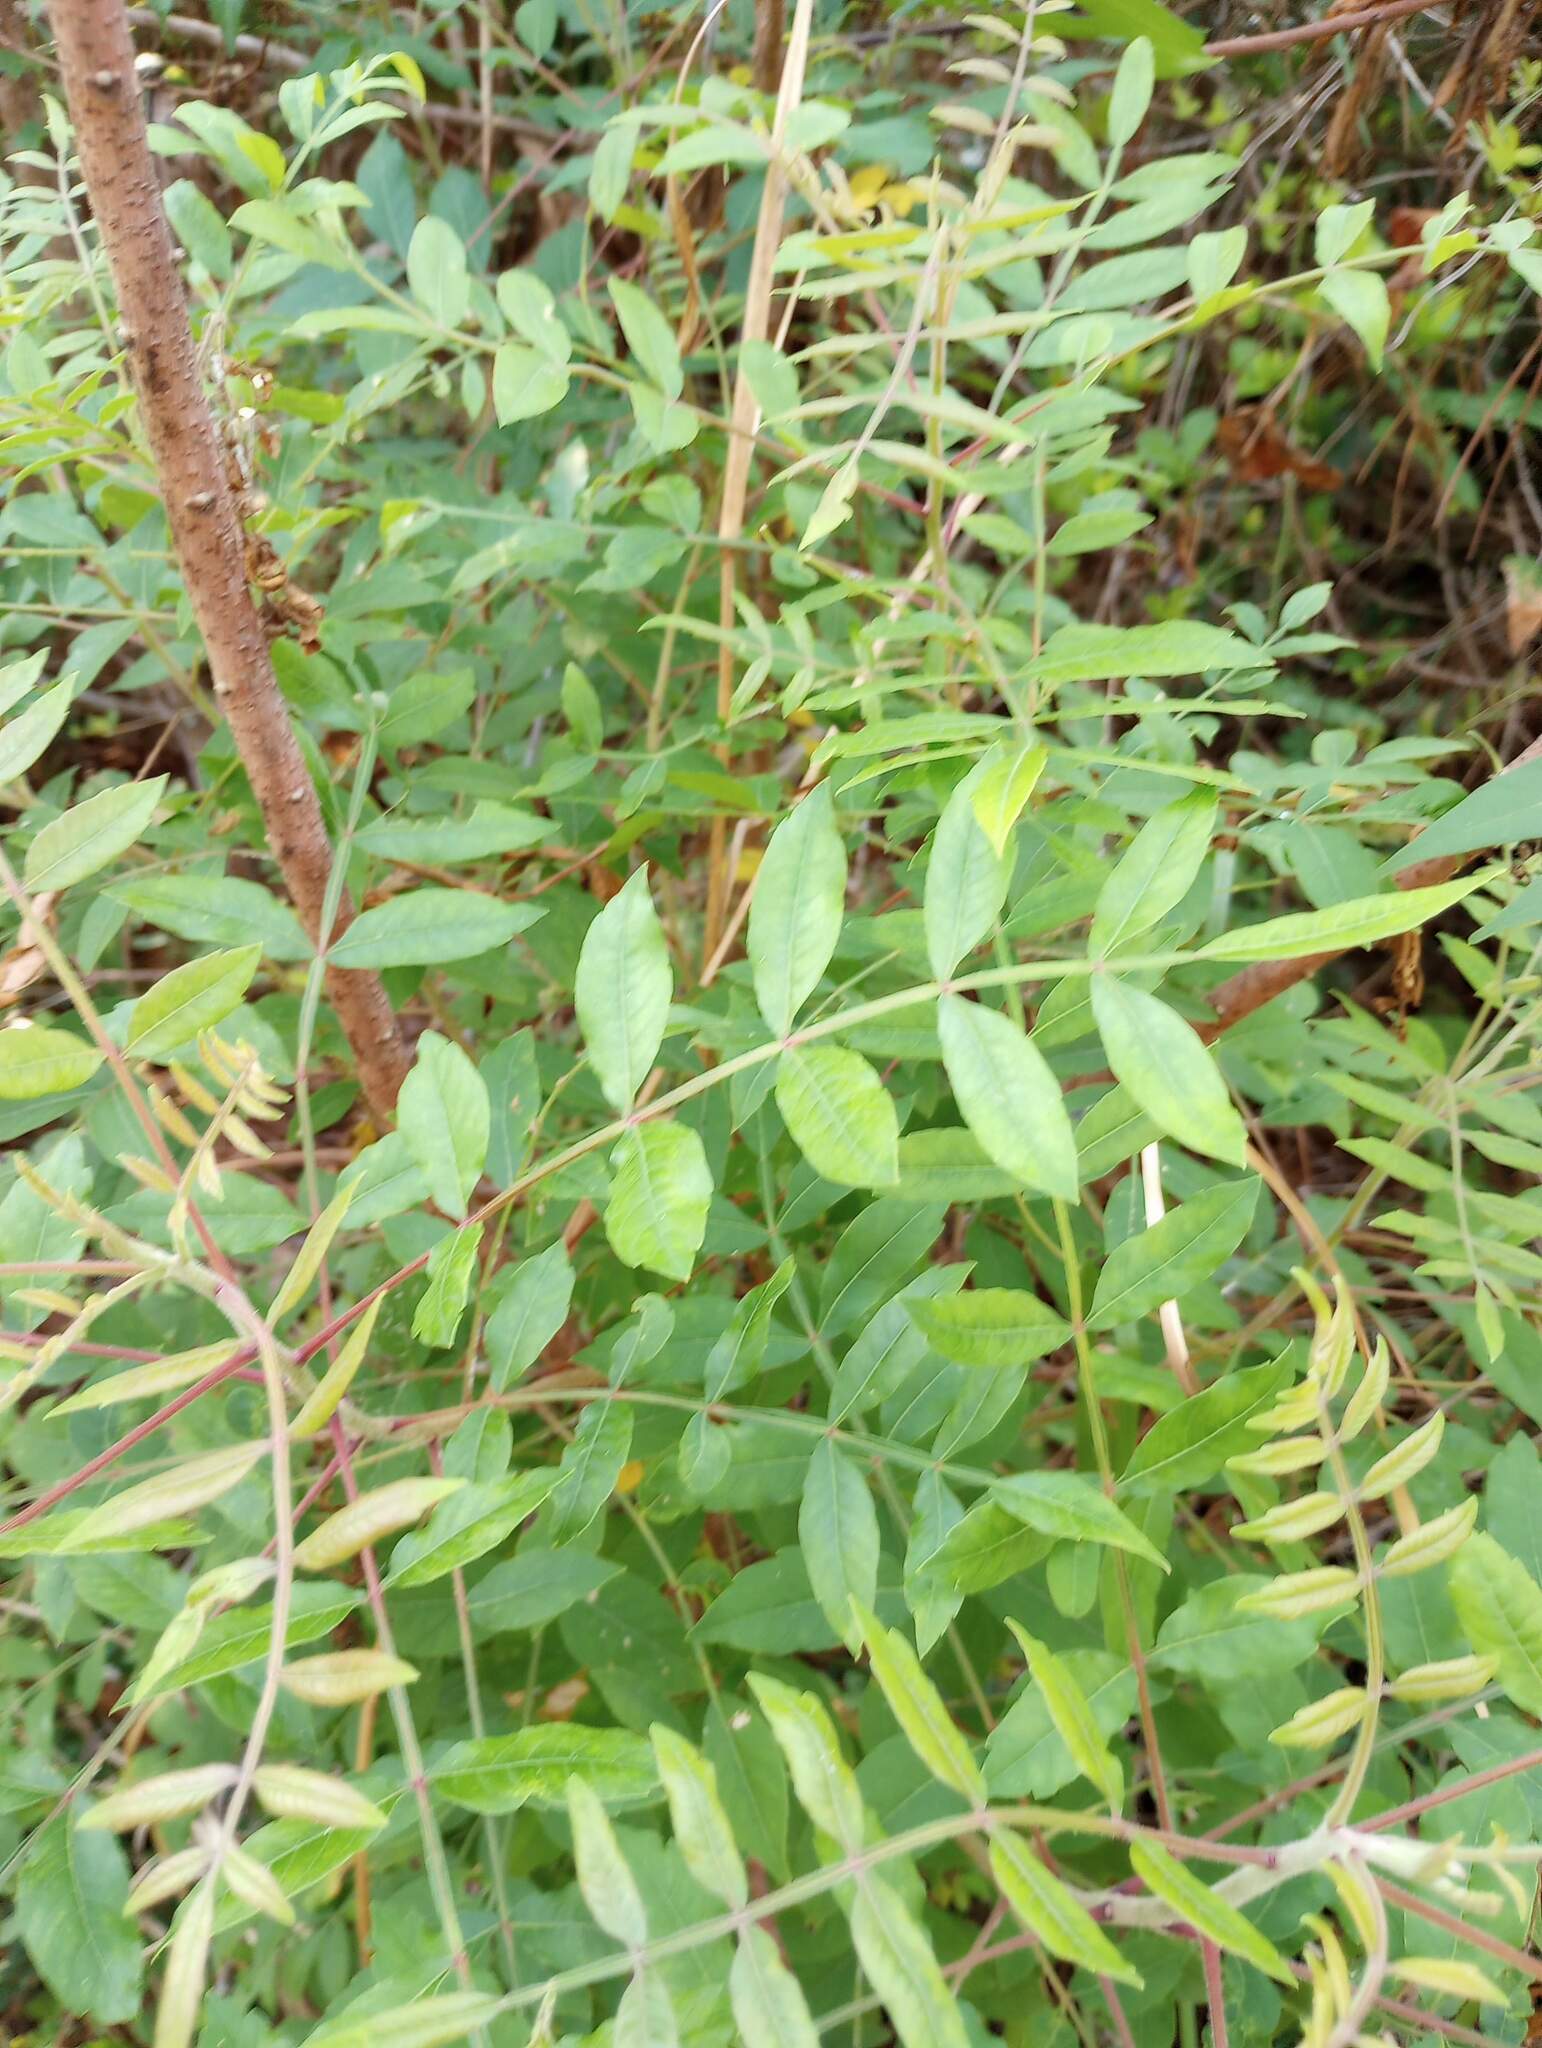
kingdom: Plantae
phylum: Tracheophyta
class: Magnoliopsida
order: Sapindales
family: Anacardiaceae
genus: Rhus
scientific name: Rhus copallina
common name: Shining sumac
